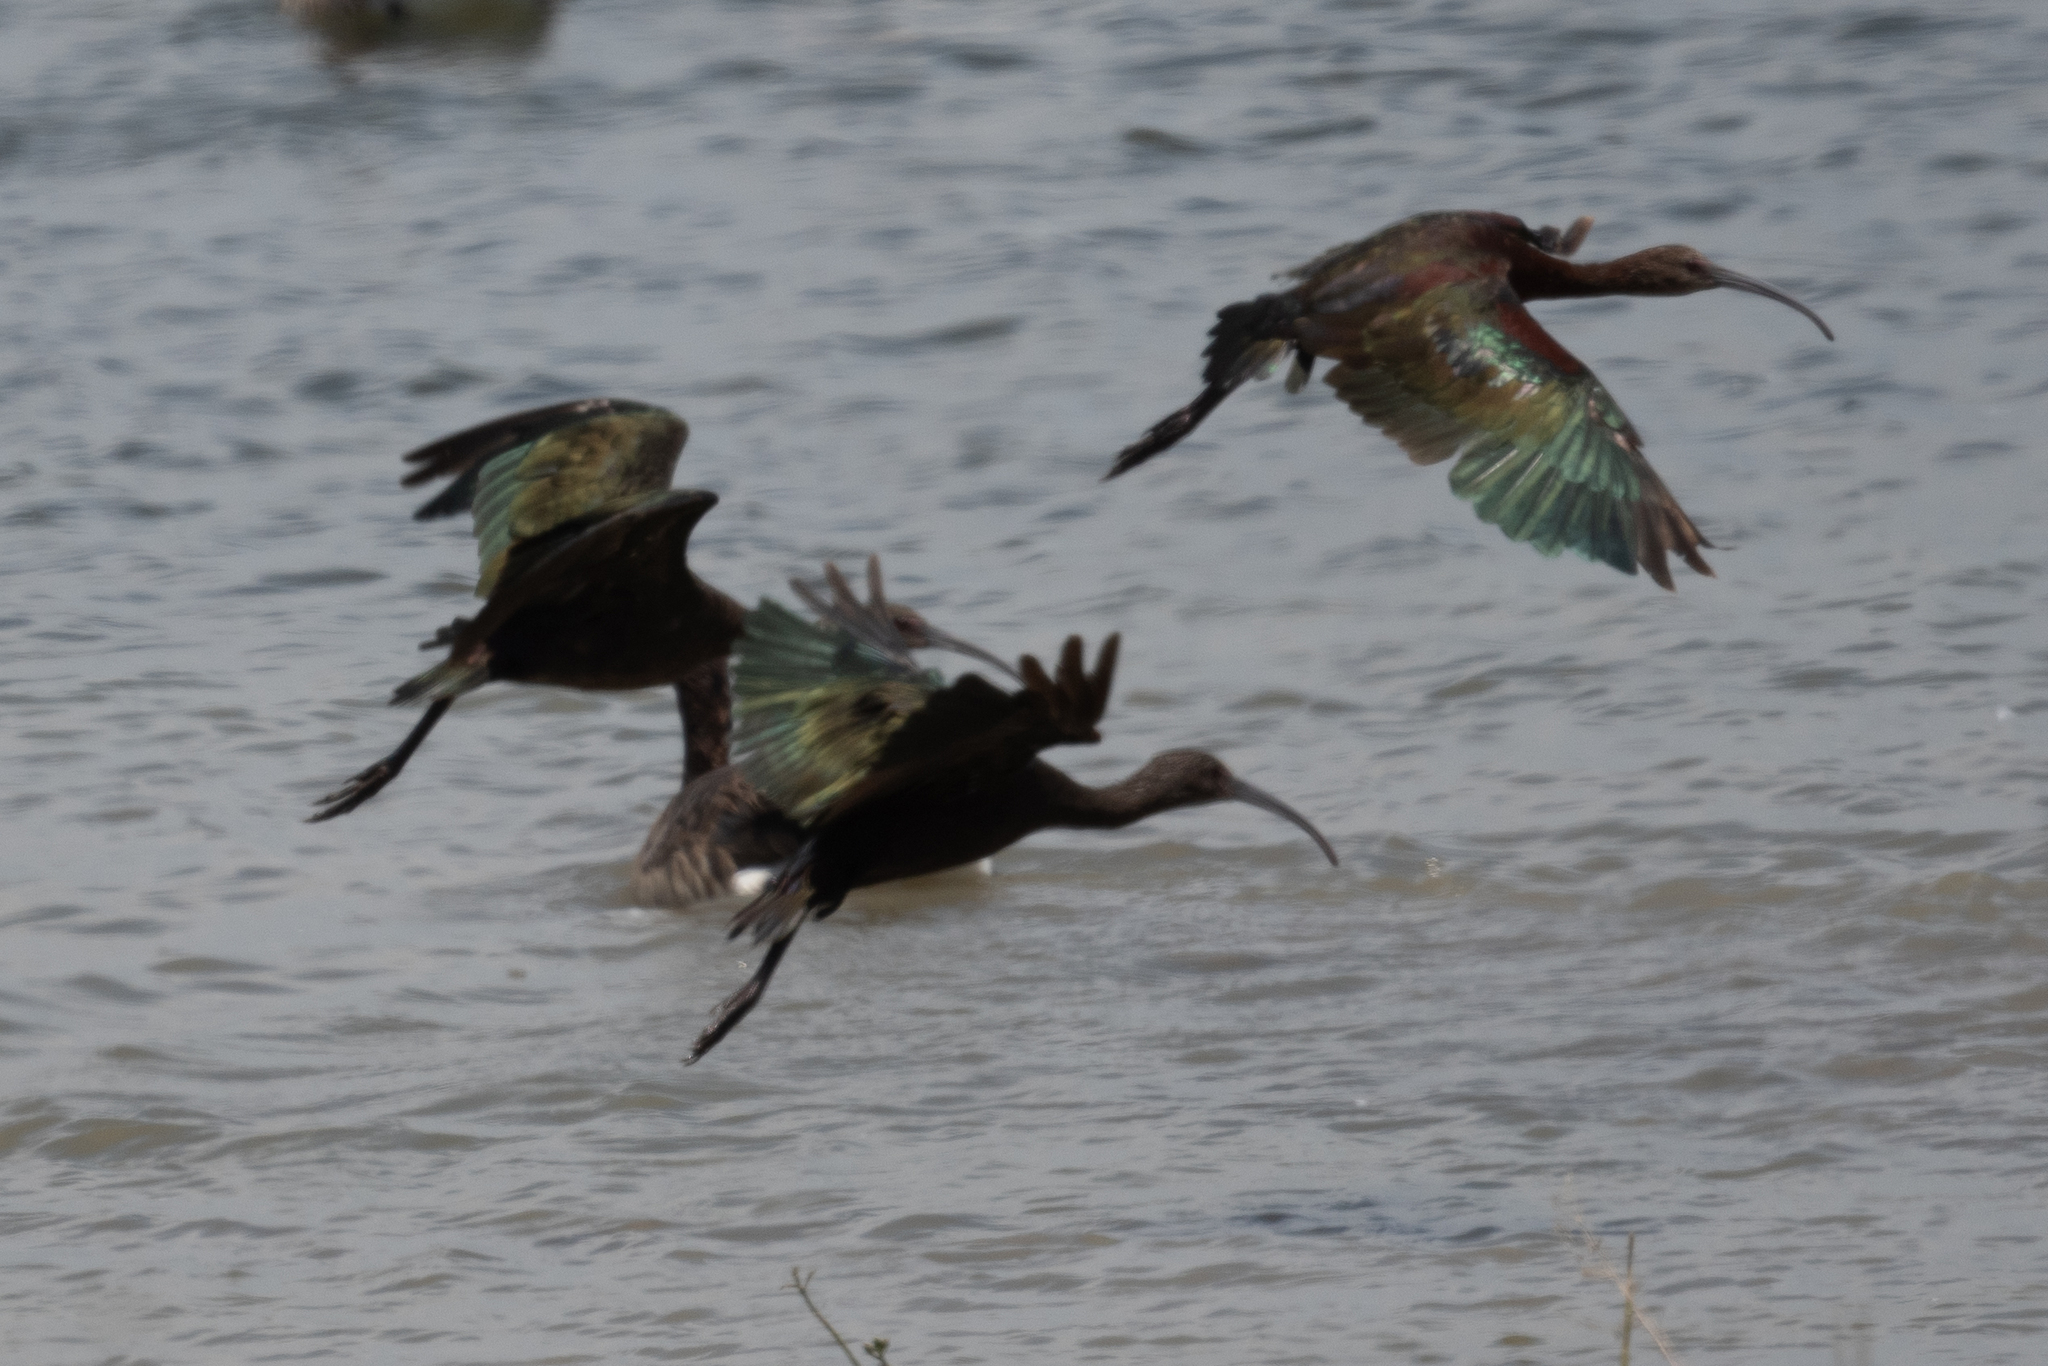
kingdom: Animalia
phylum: Chordata
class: Aves
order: Pelecaniformes
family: Threskiornithidae
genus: Plegadis
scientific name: Plegadis chihi
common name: White-faced ibis
